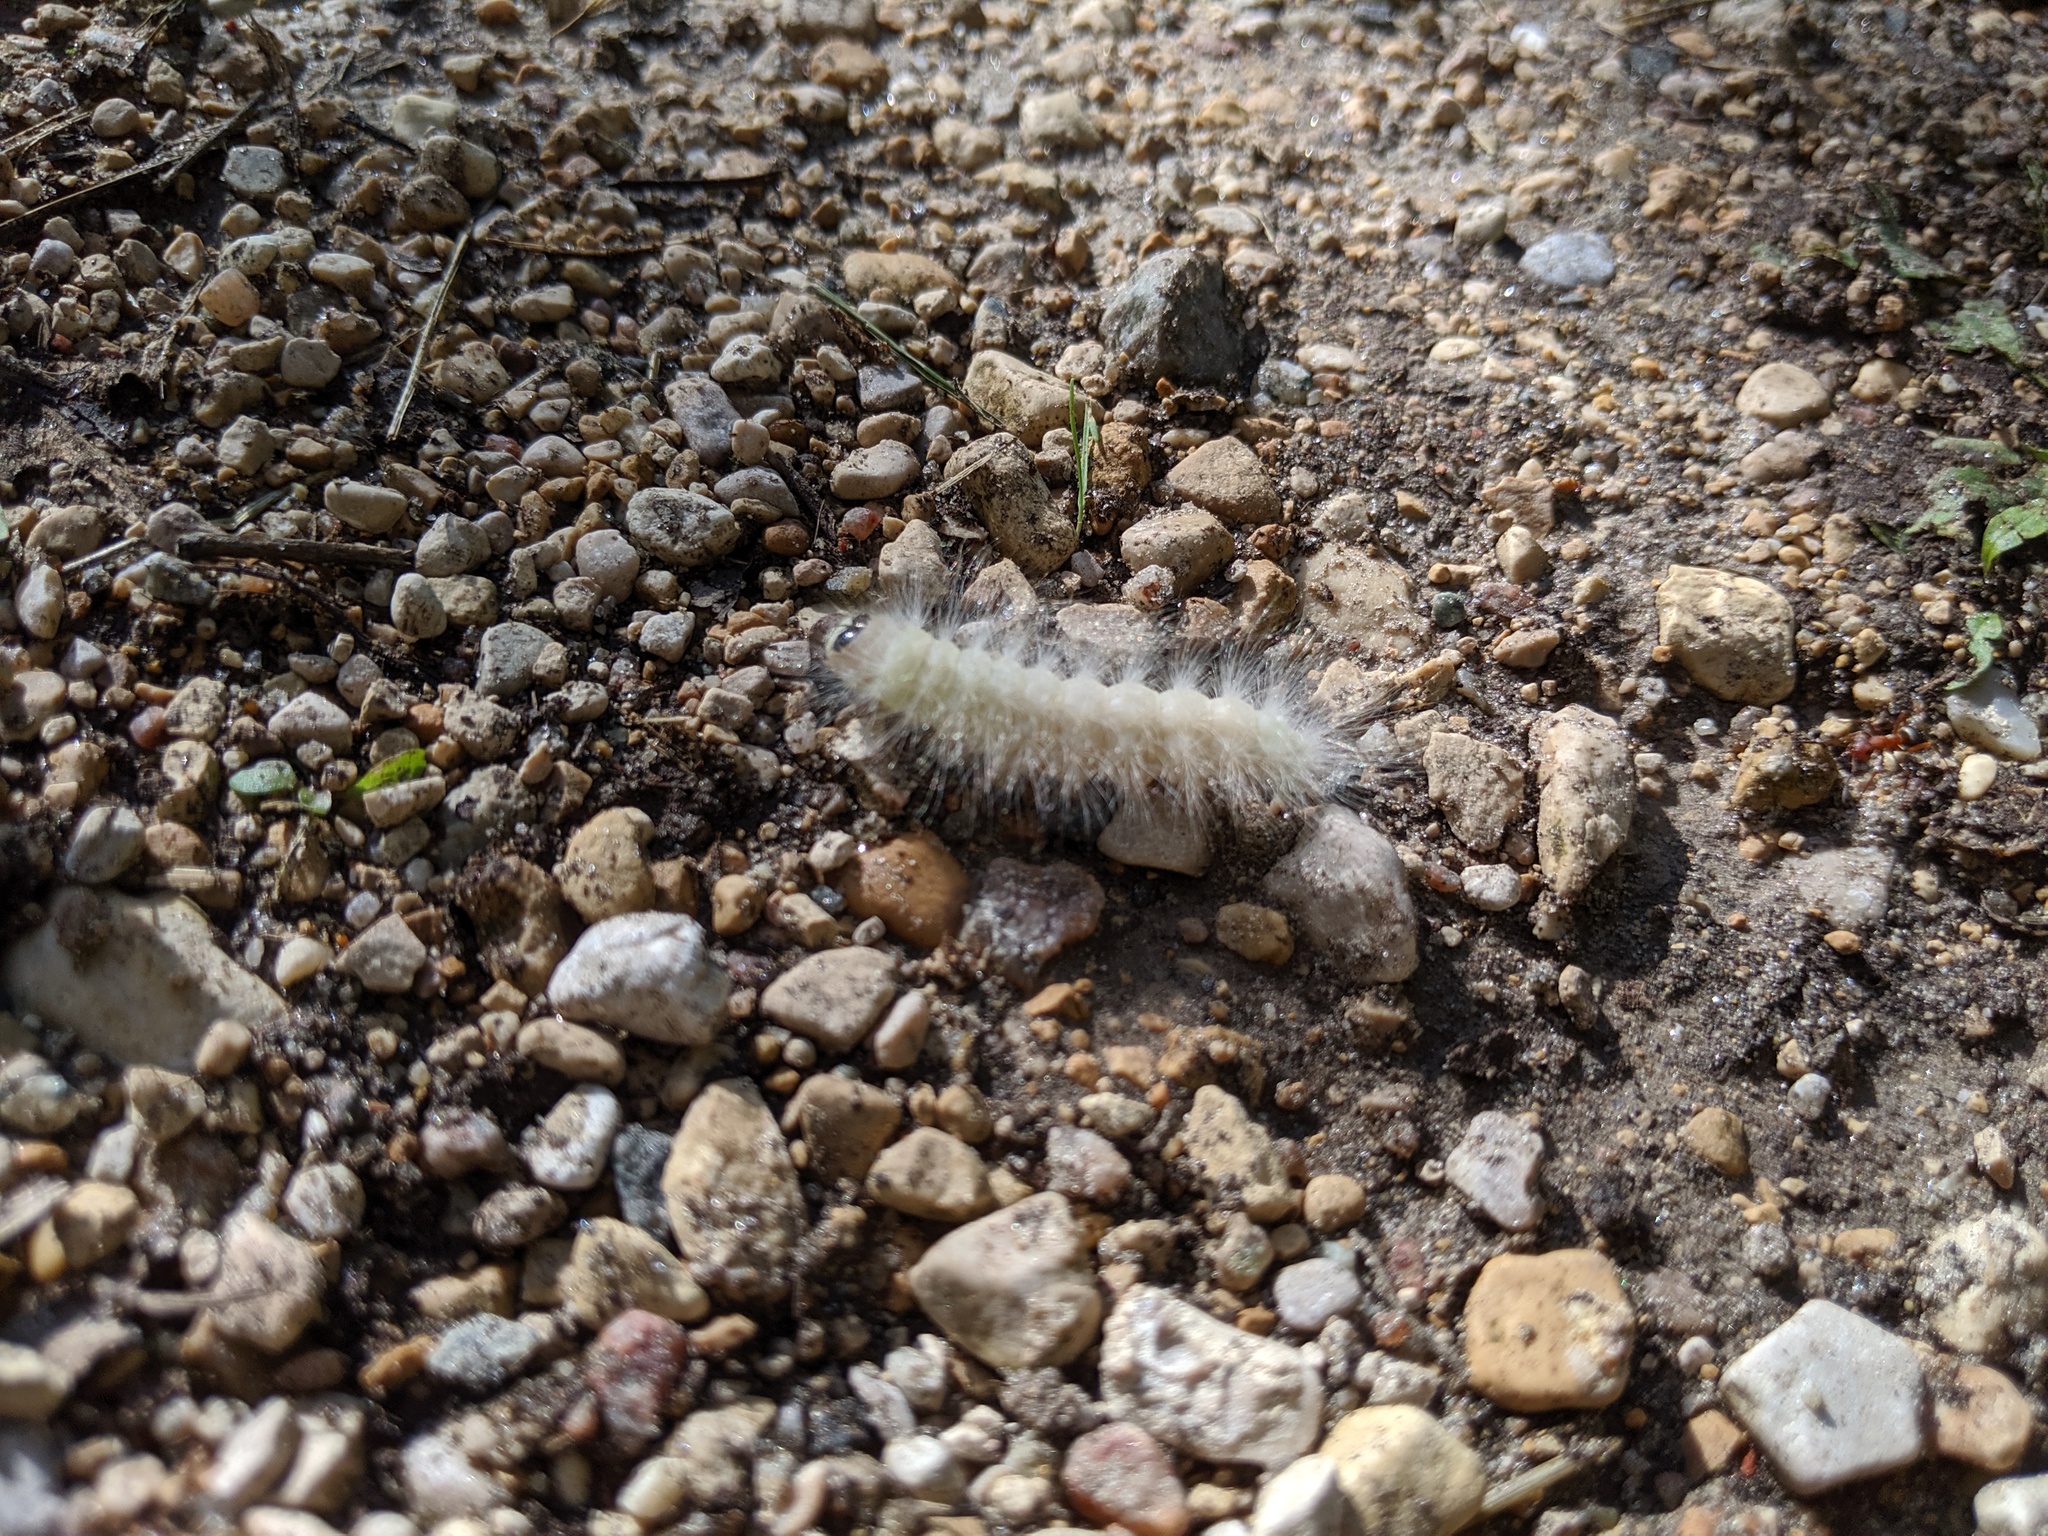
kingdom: Animalia
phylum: Arthropoda
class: Insecta
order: Lepidoptera
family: Noctuidae
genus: Charadra
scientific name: Charadra deridens
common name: Marbled tuffet
